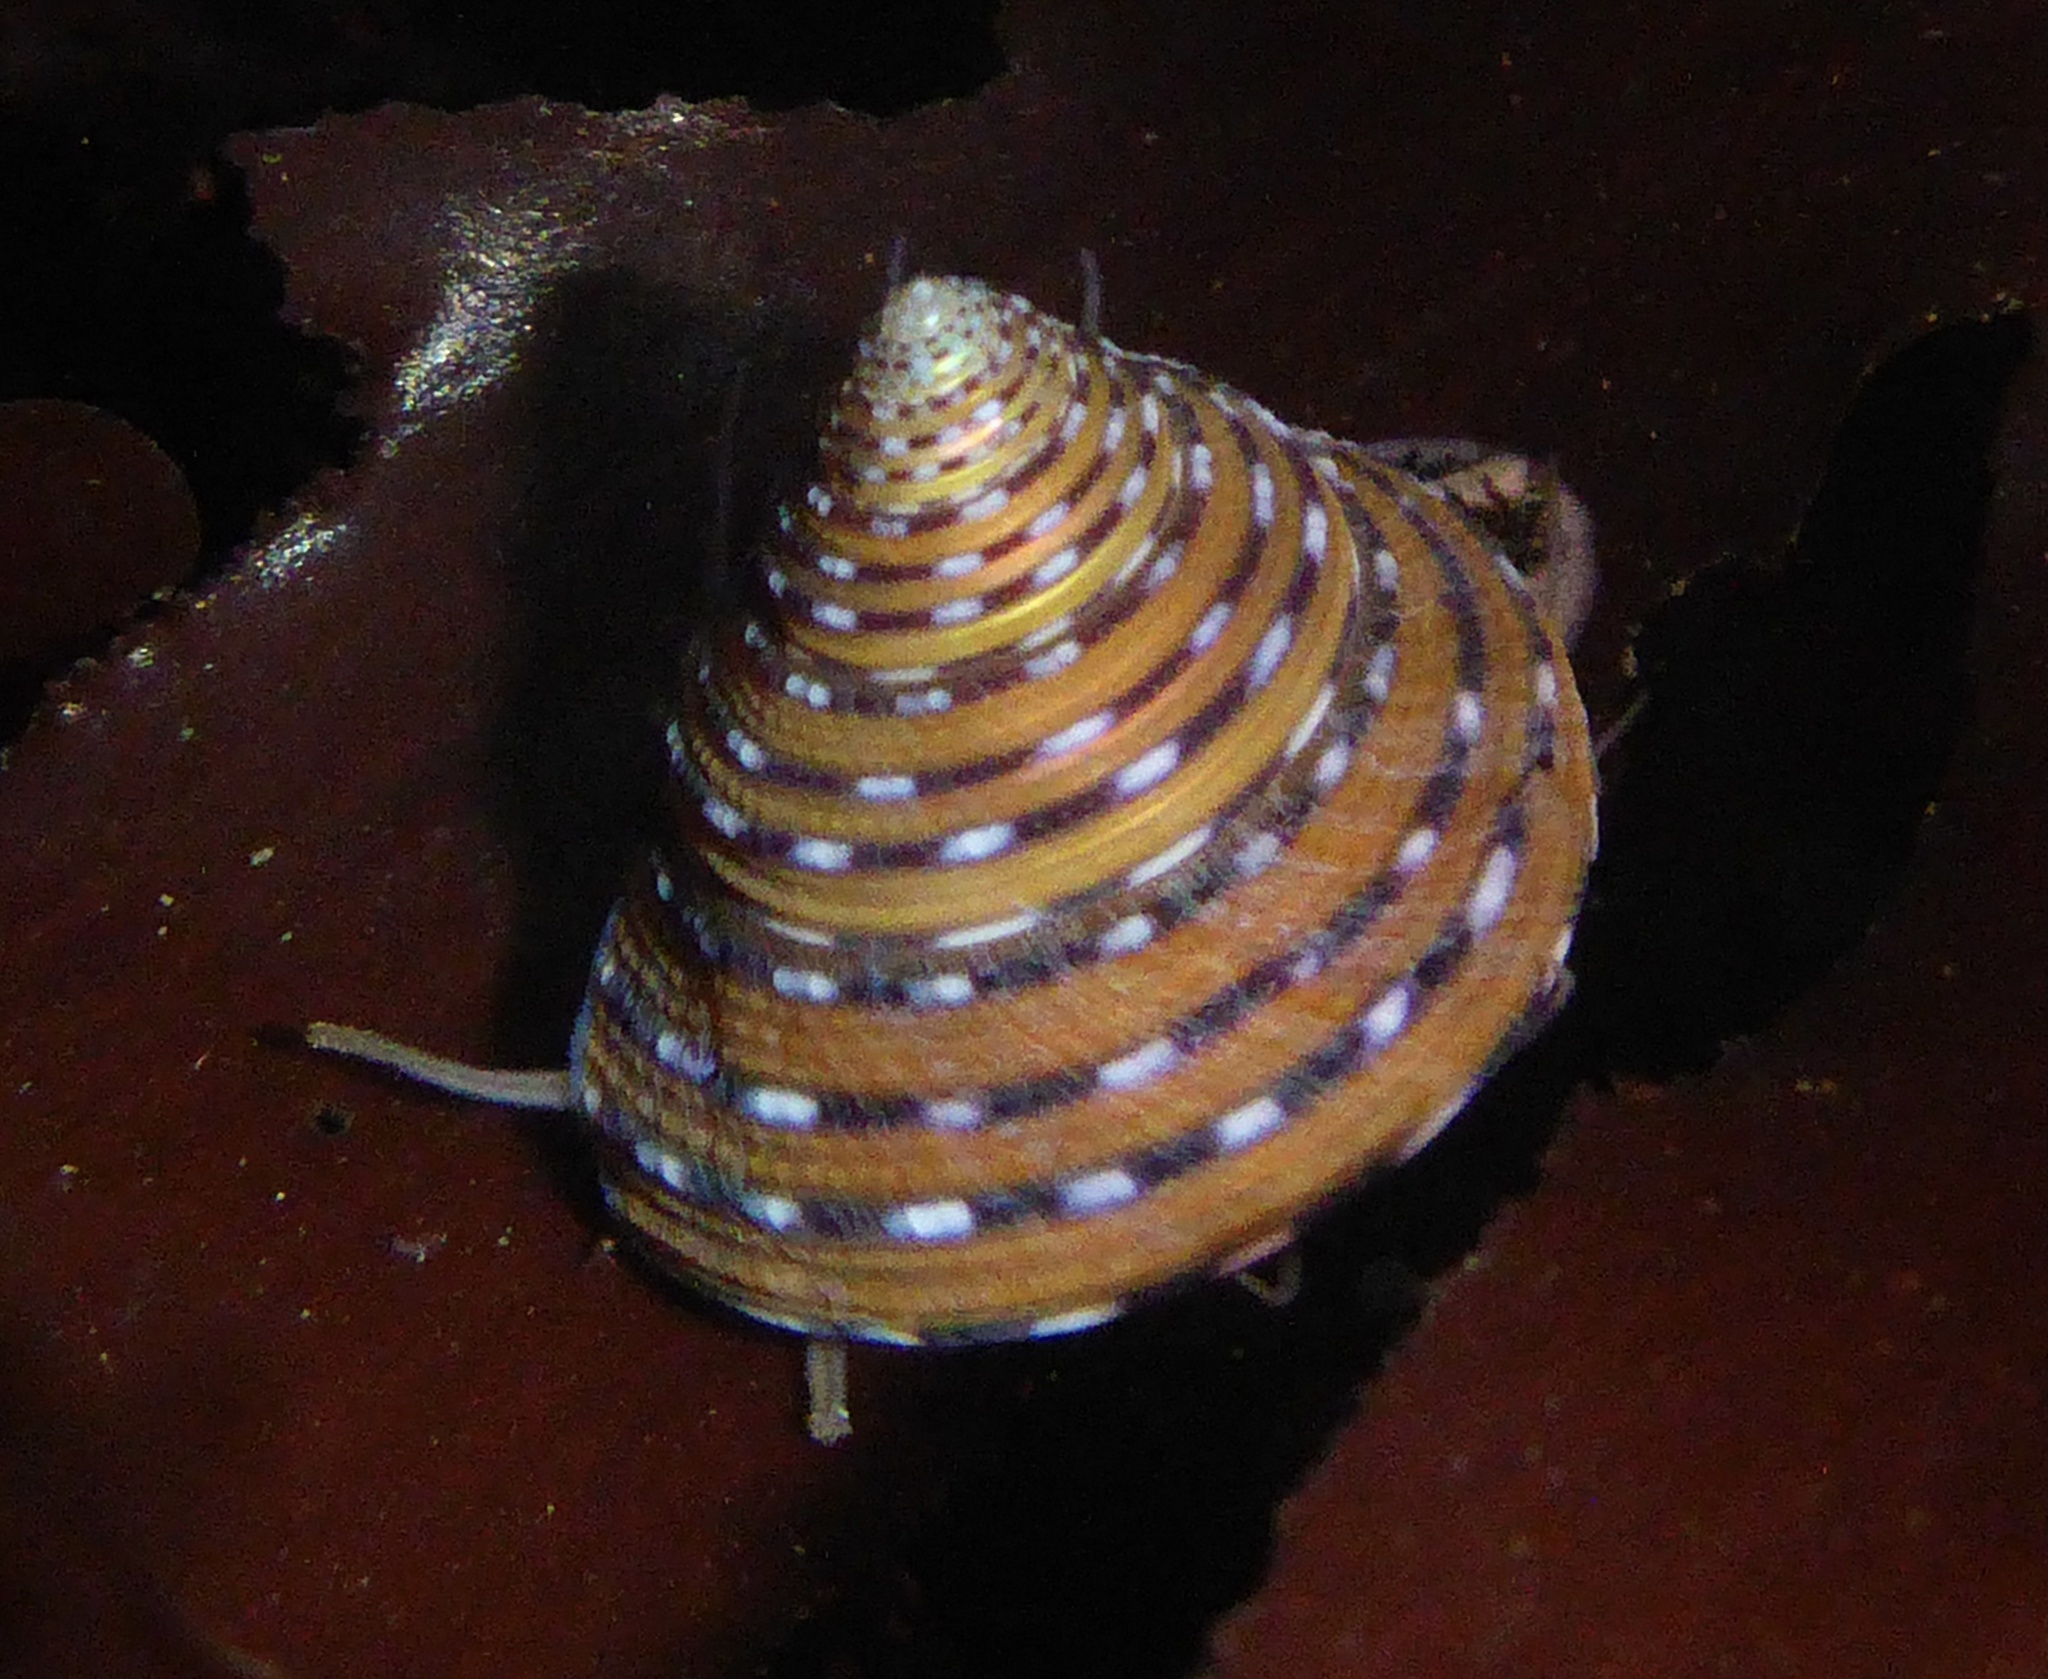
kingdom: Animalia
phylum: Mollusca
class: Gastropoda
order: Trochida
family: Calliostomatidae
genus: Calliostoma
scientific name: Calliostoma tricolor
